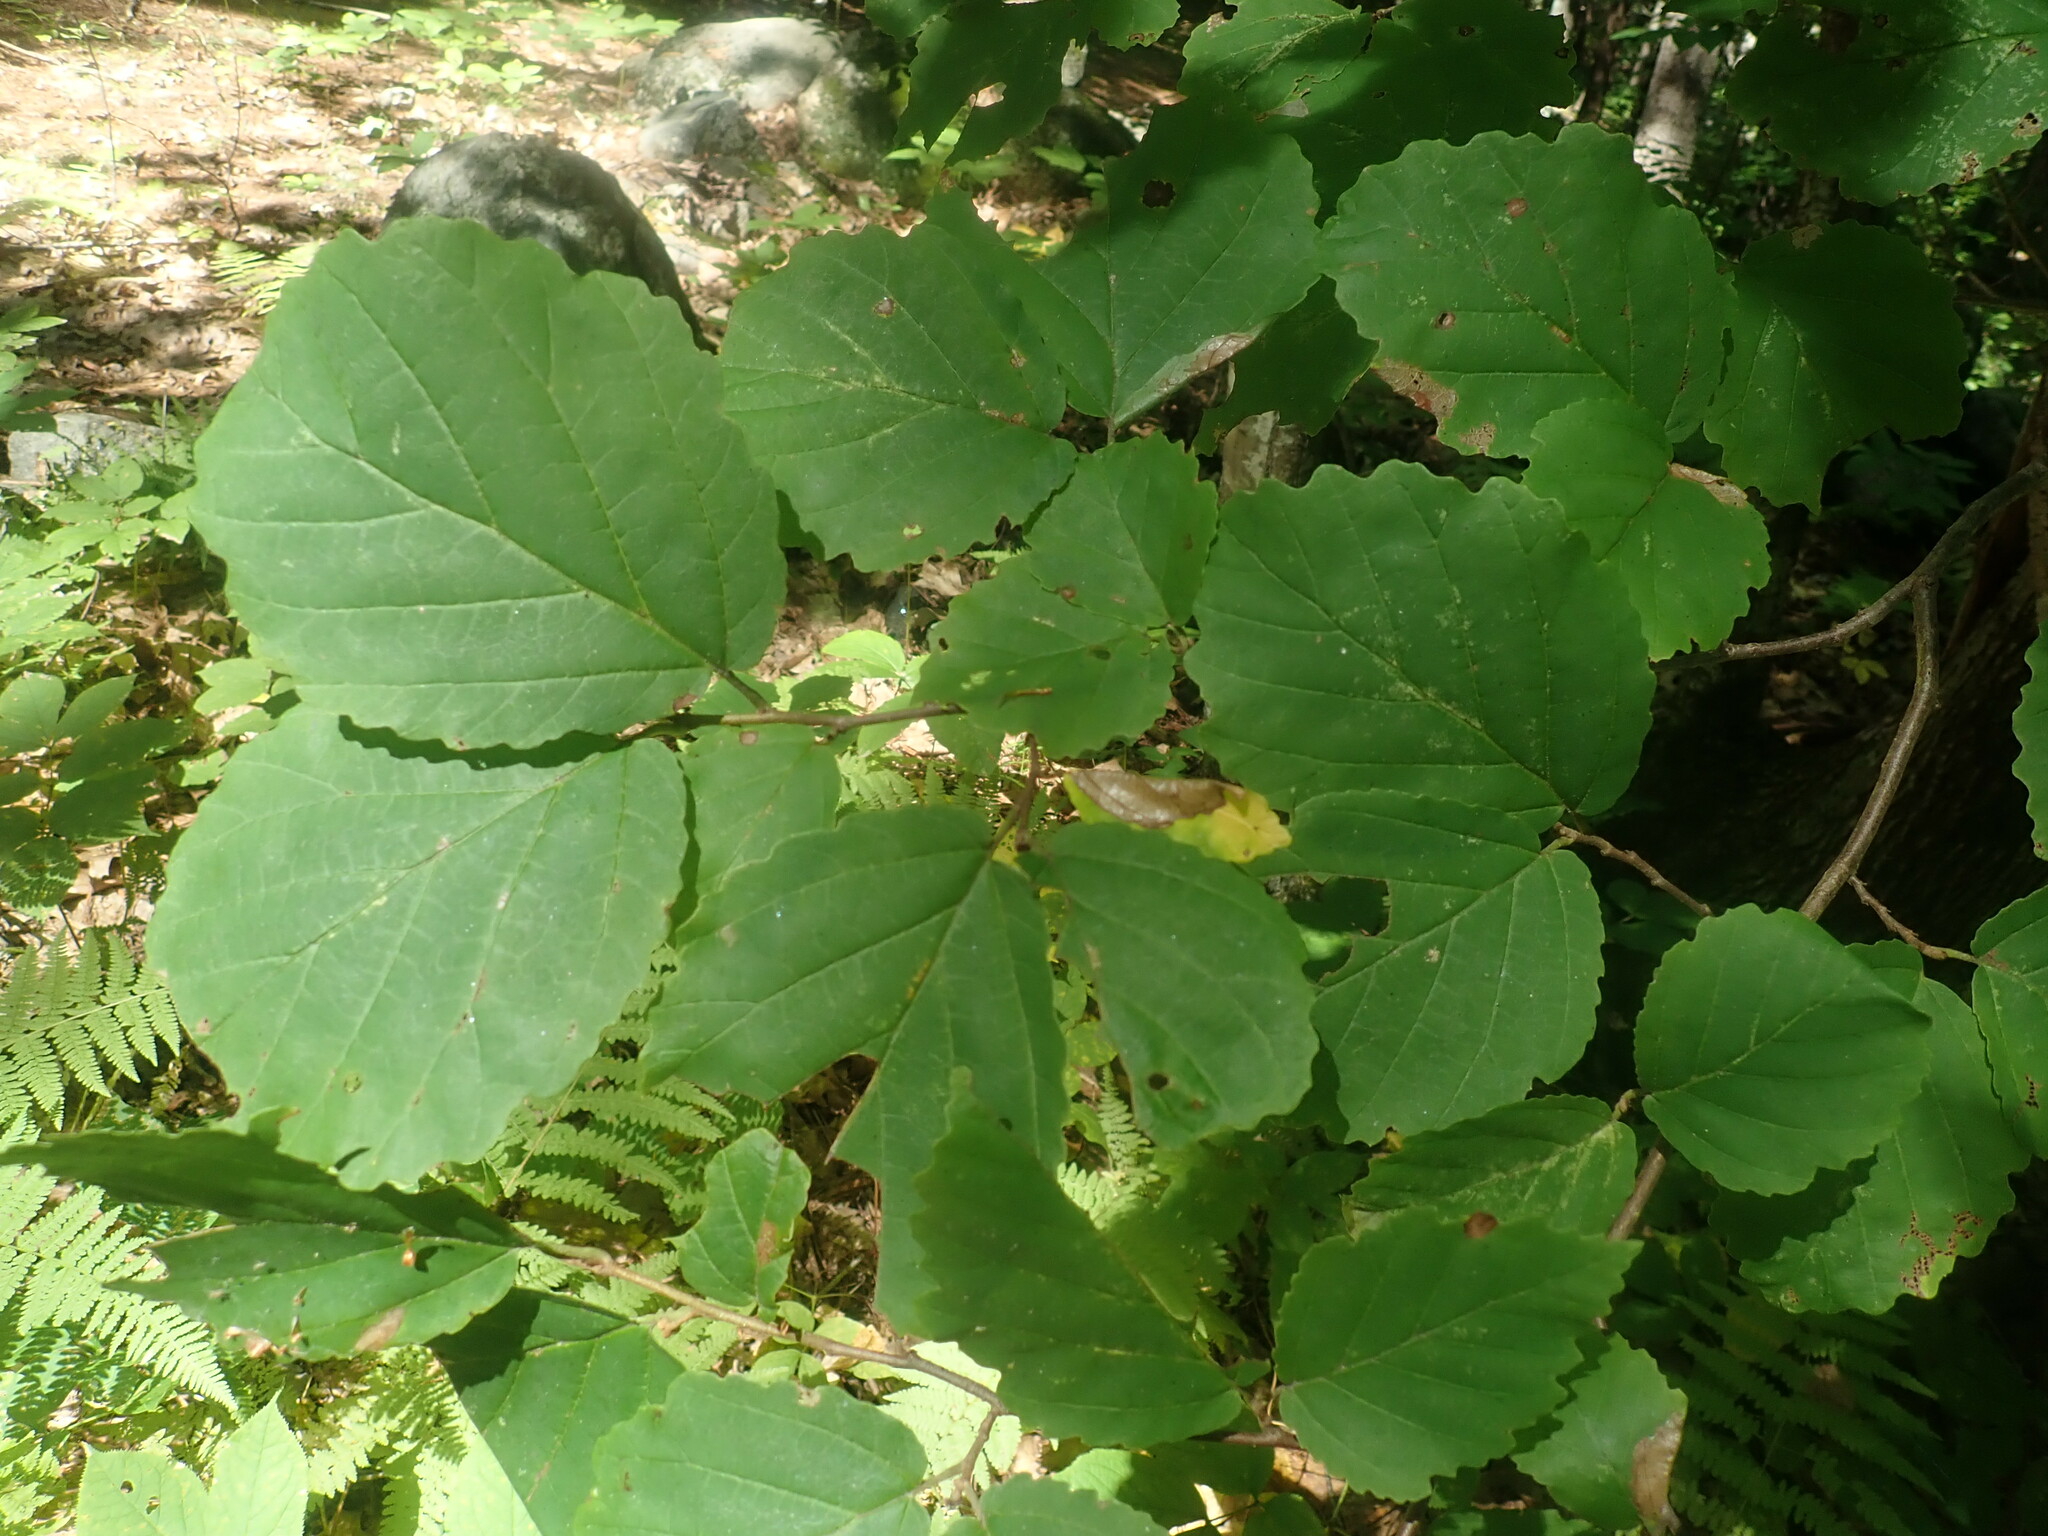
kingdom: Plantae
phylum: Tracheophyta
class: Magnoliopsida
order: Saxifragales
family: Hamamelidaceae
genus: Hamamelis
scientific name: Hamamelis virginiana
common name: Witch-hazel
